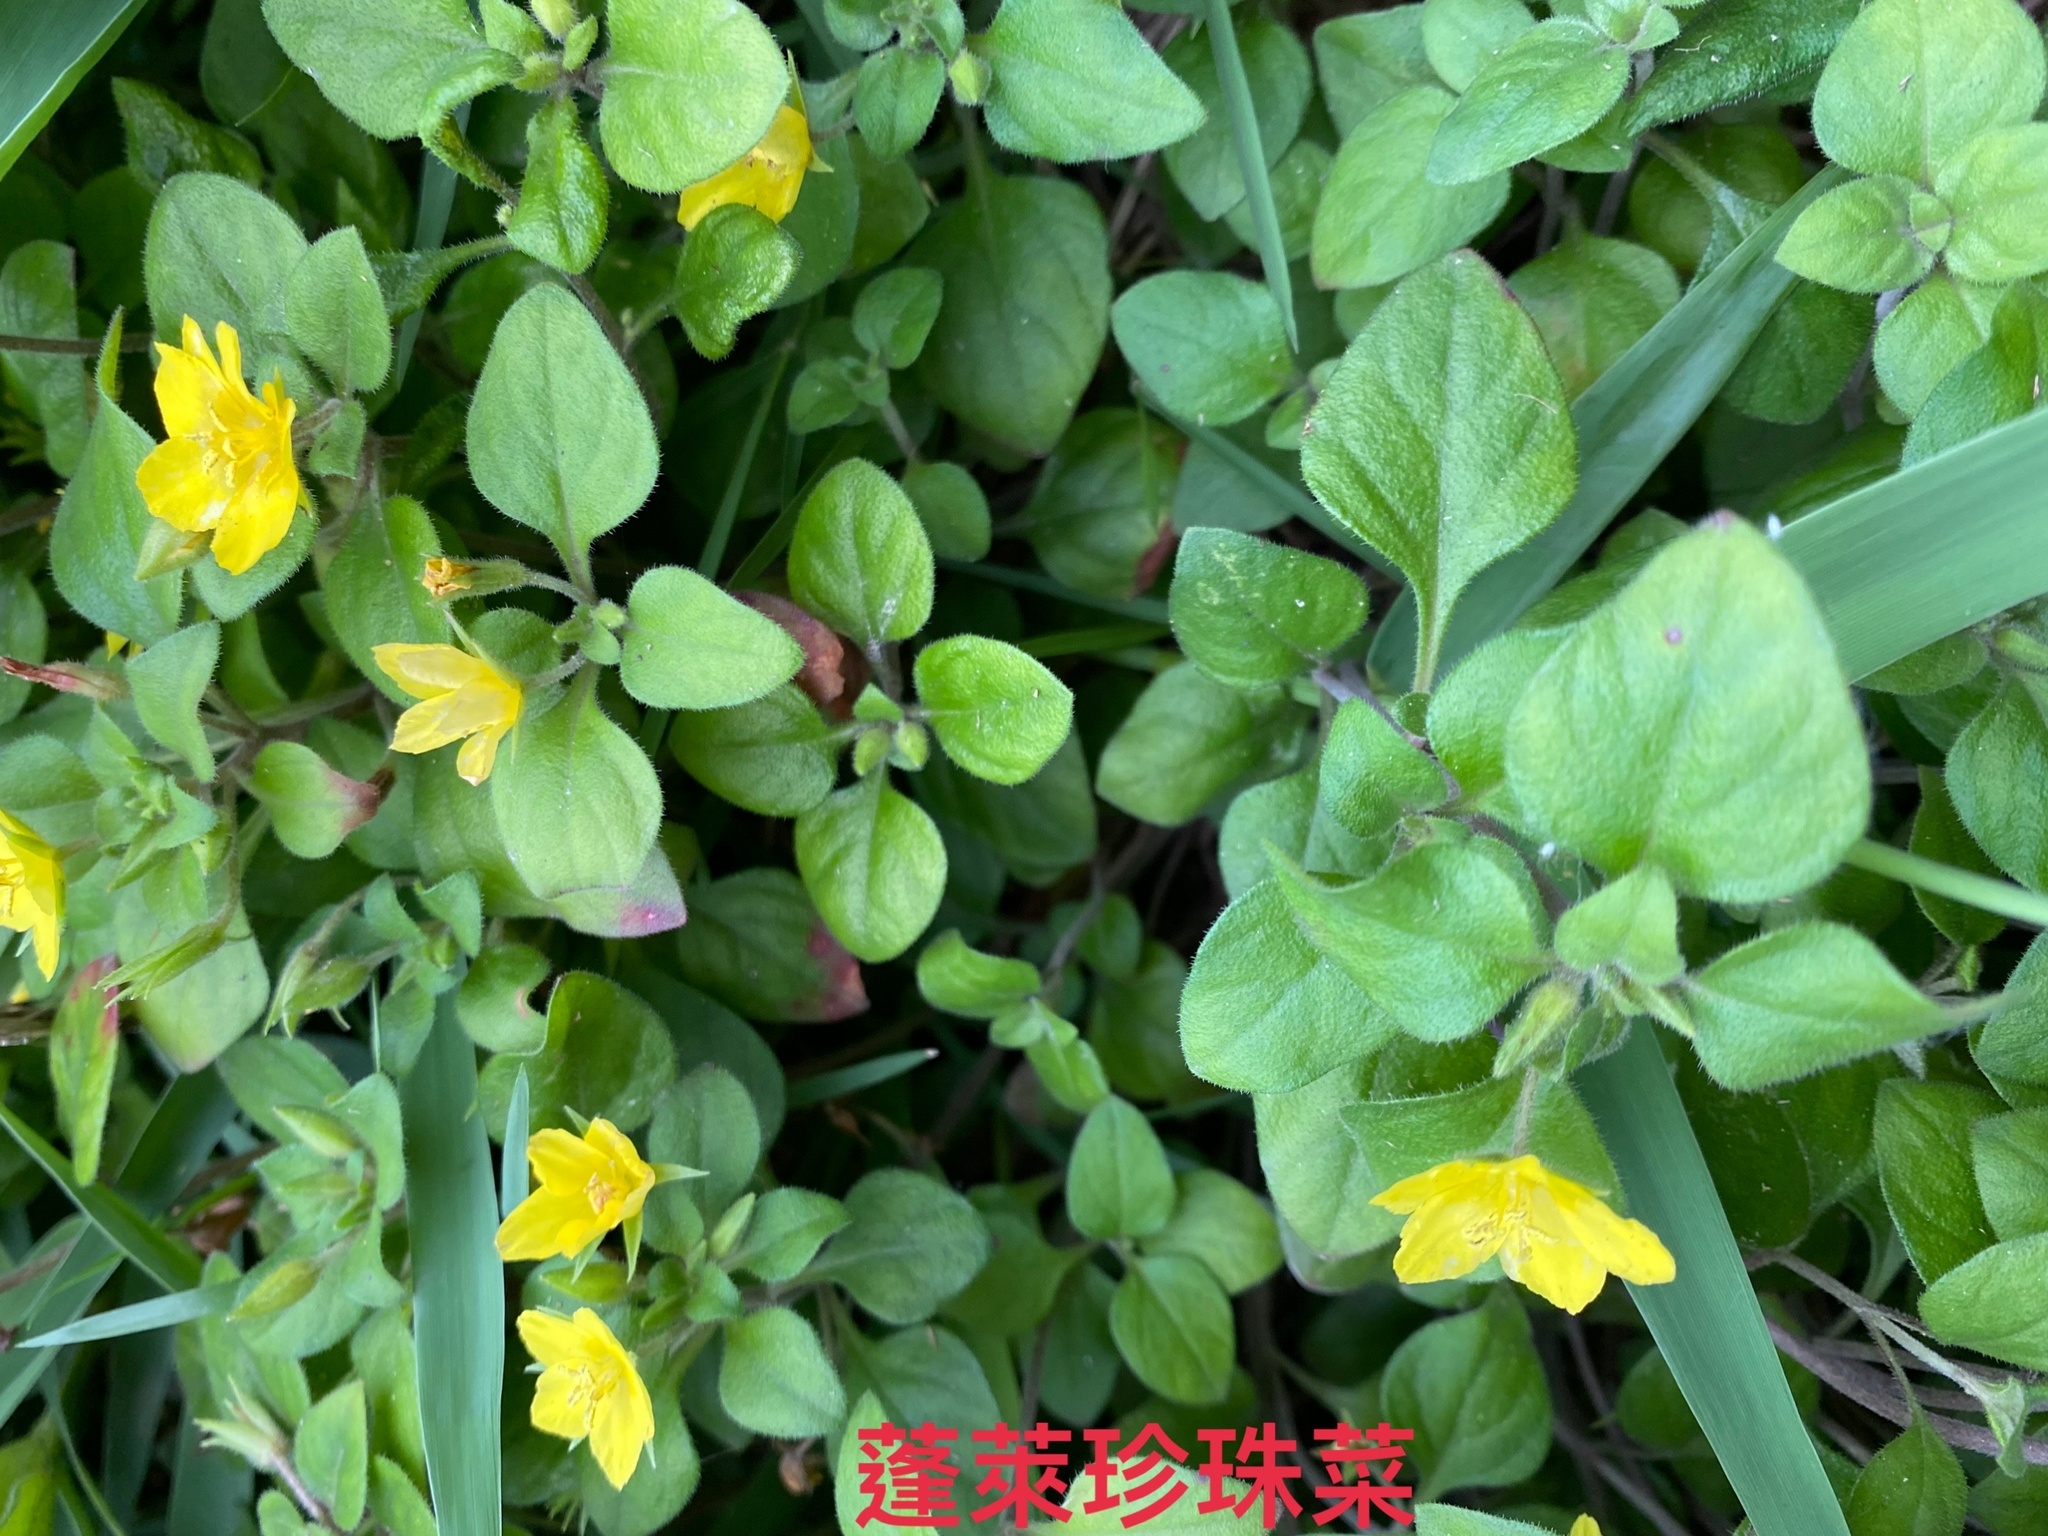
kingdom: Plantae
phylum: Tracheophyta
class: Magnoliopsida
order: Ericales
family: Primulaceae
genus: Lysimachia
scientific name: Lysimachia remota
